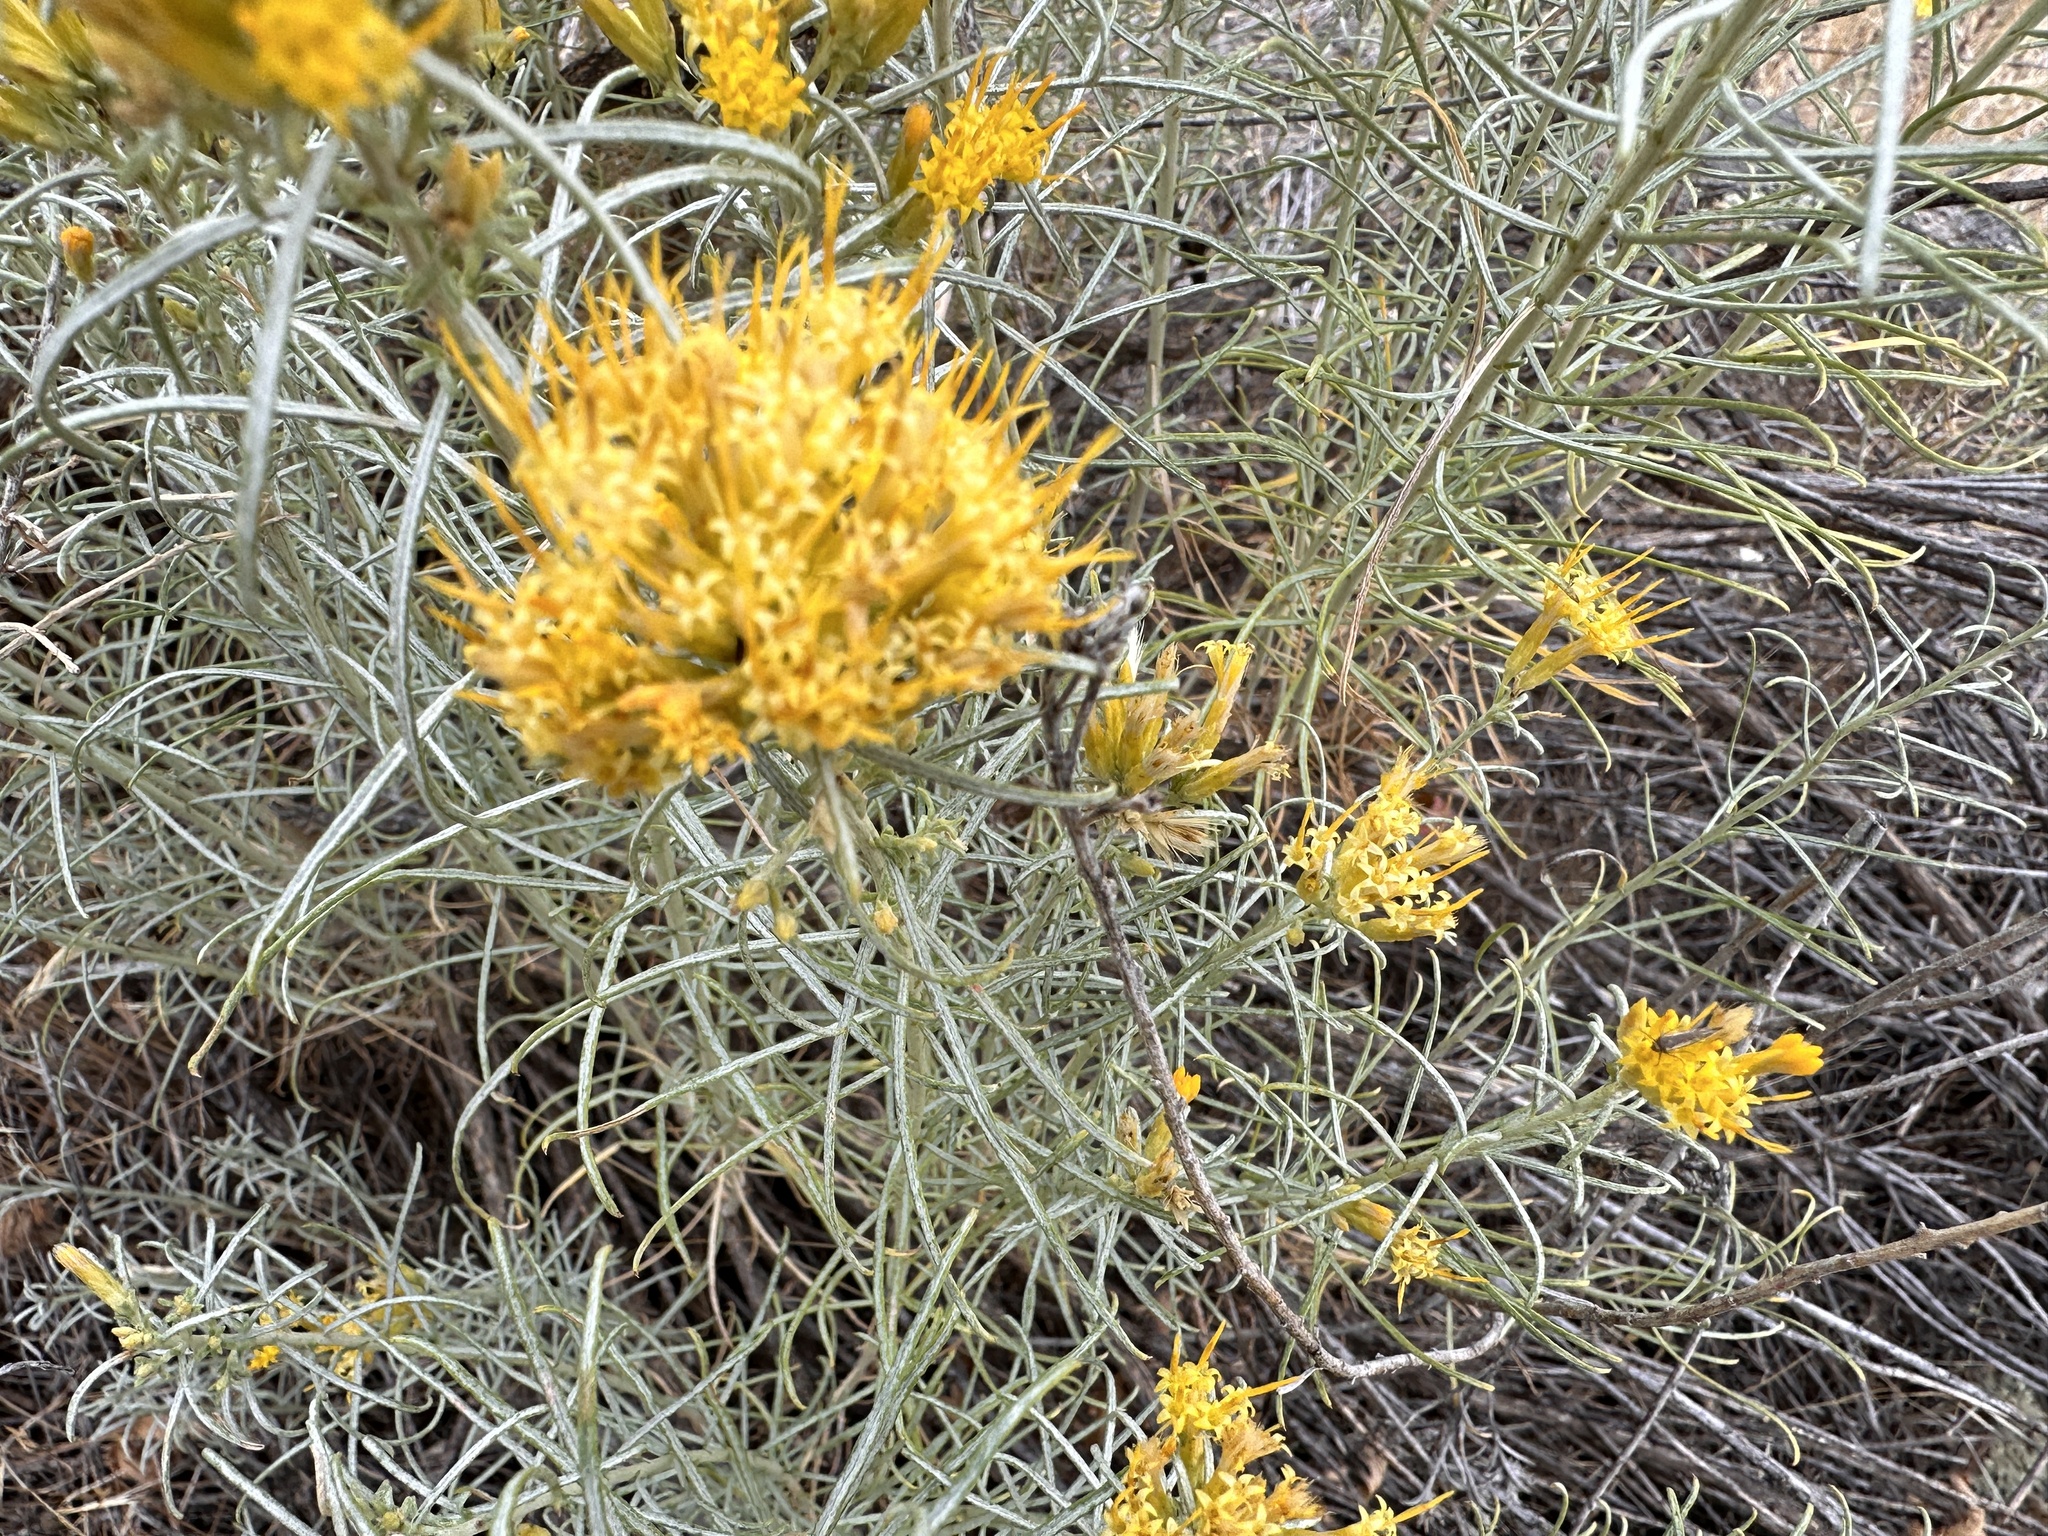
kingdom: Plantae
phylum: Tracheophyta
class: Magnoliopsida
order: Asterales
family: Asteraceae
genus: Ericameria
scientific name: Ericameria nauseosa
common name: Rubber rabbitbrush
